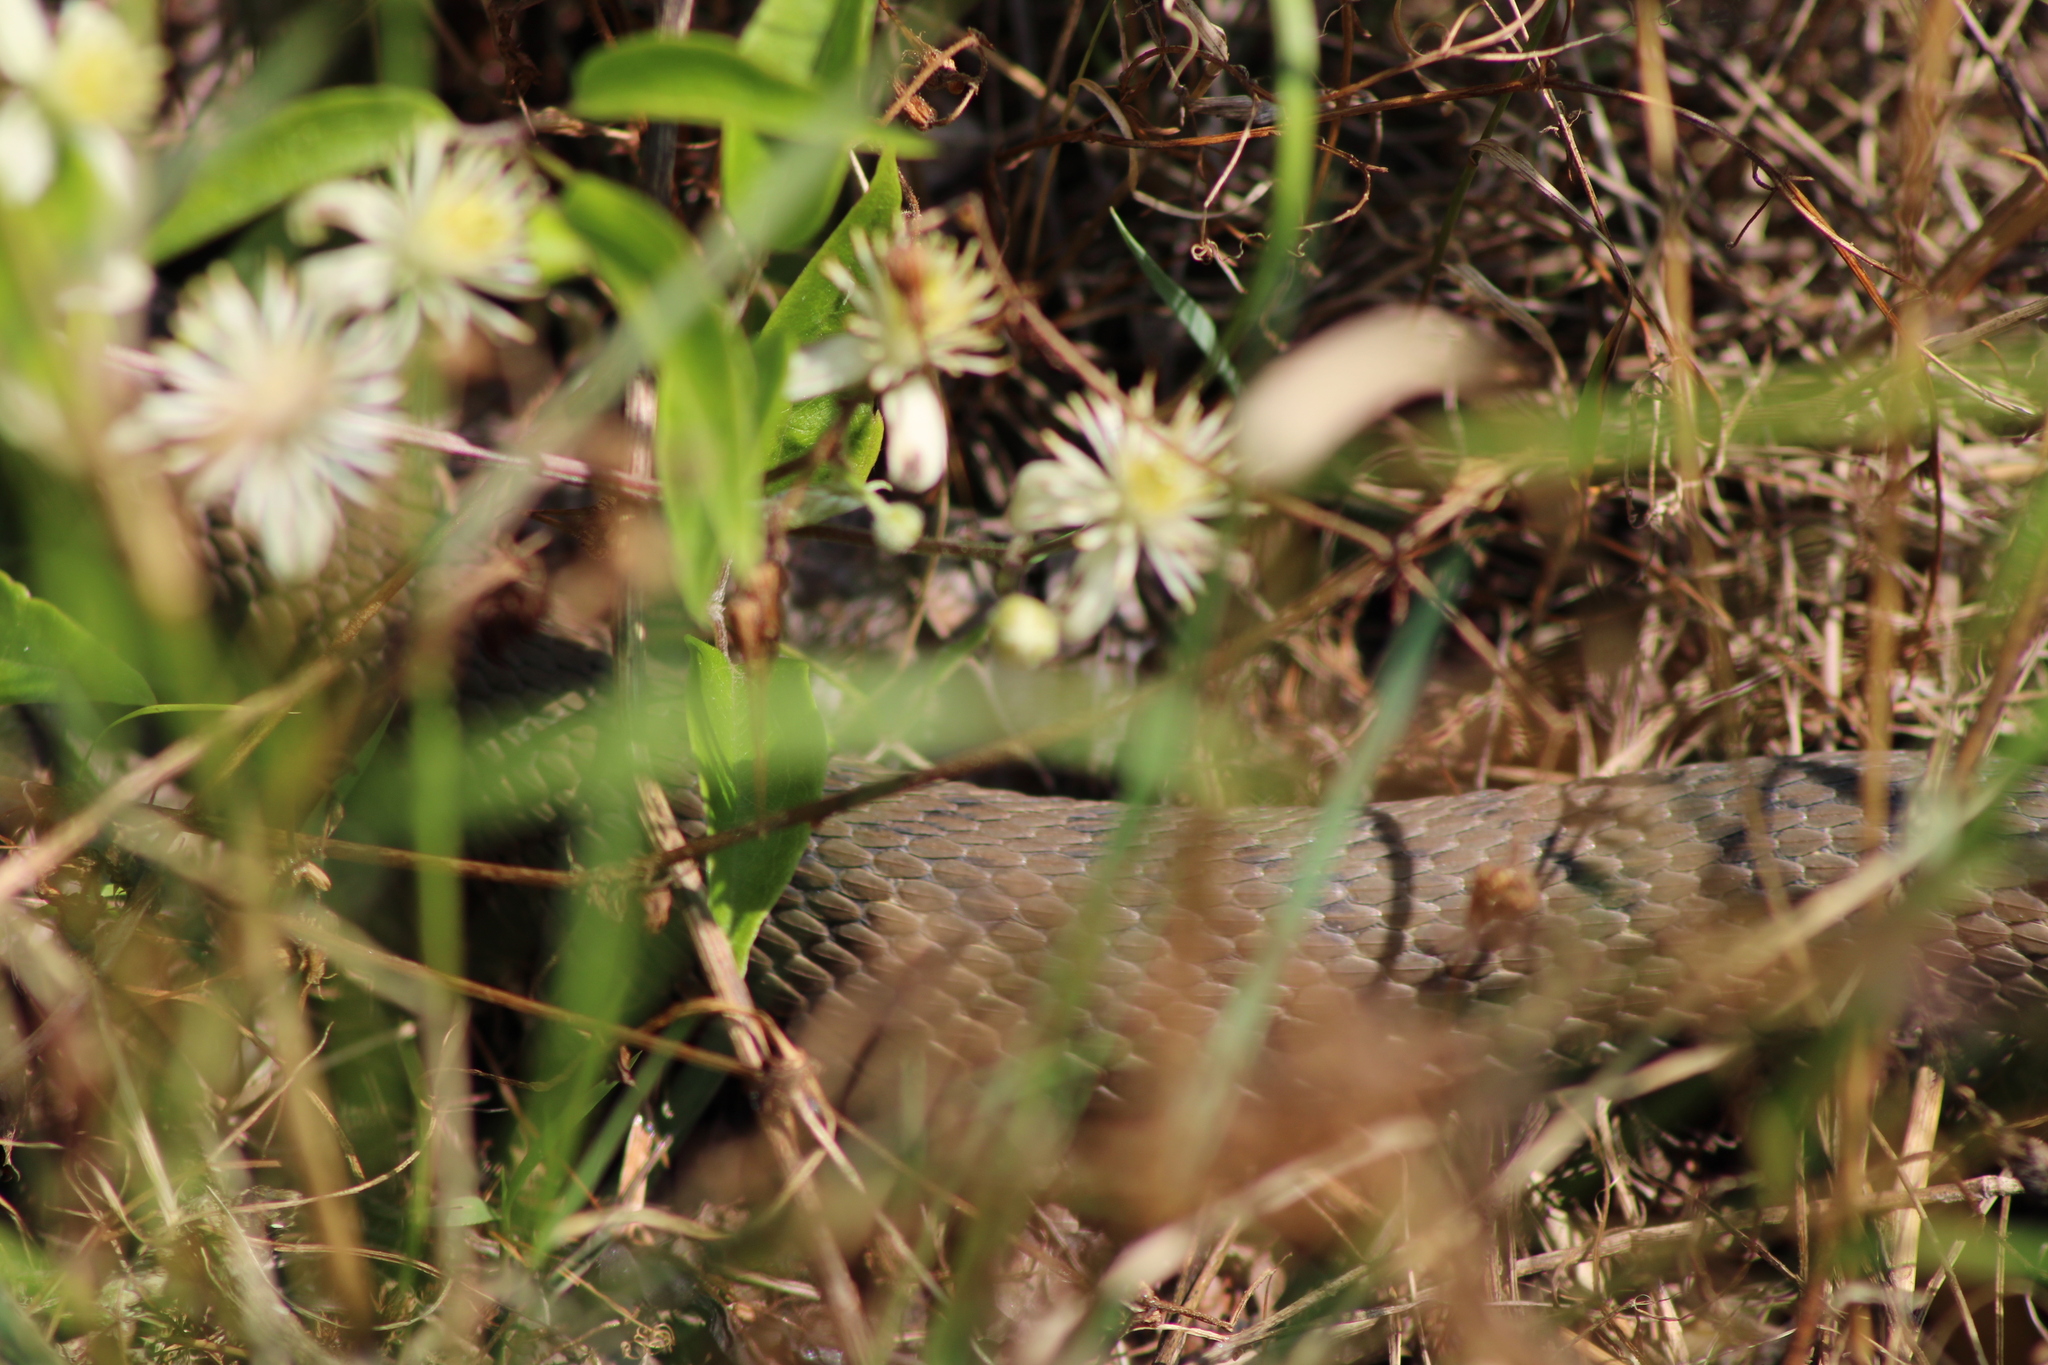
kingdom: Animalia
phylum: Chordata
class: Squamata
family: Colubridae
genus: Natrix
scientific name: Natrix tessellata
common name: Dice snake
